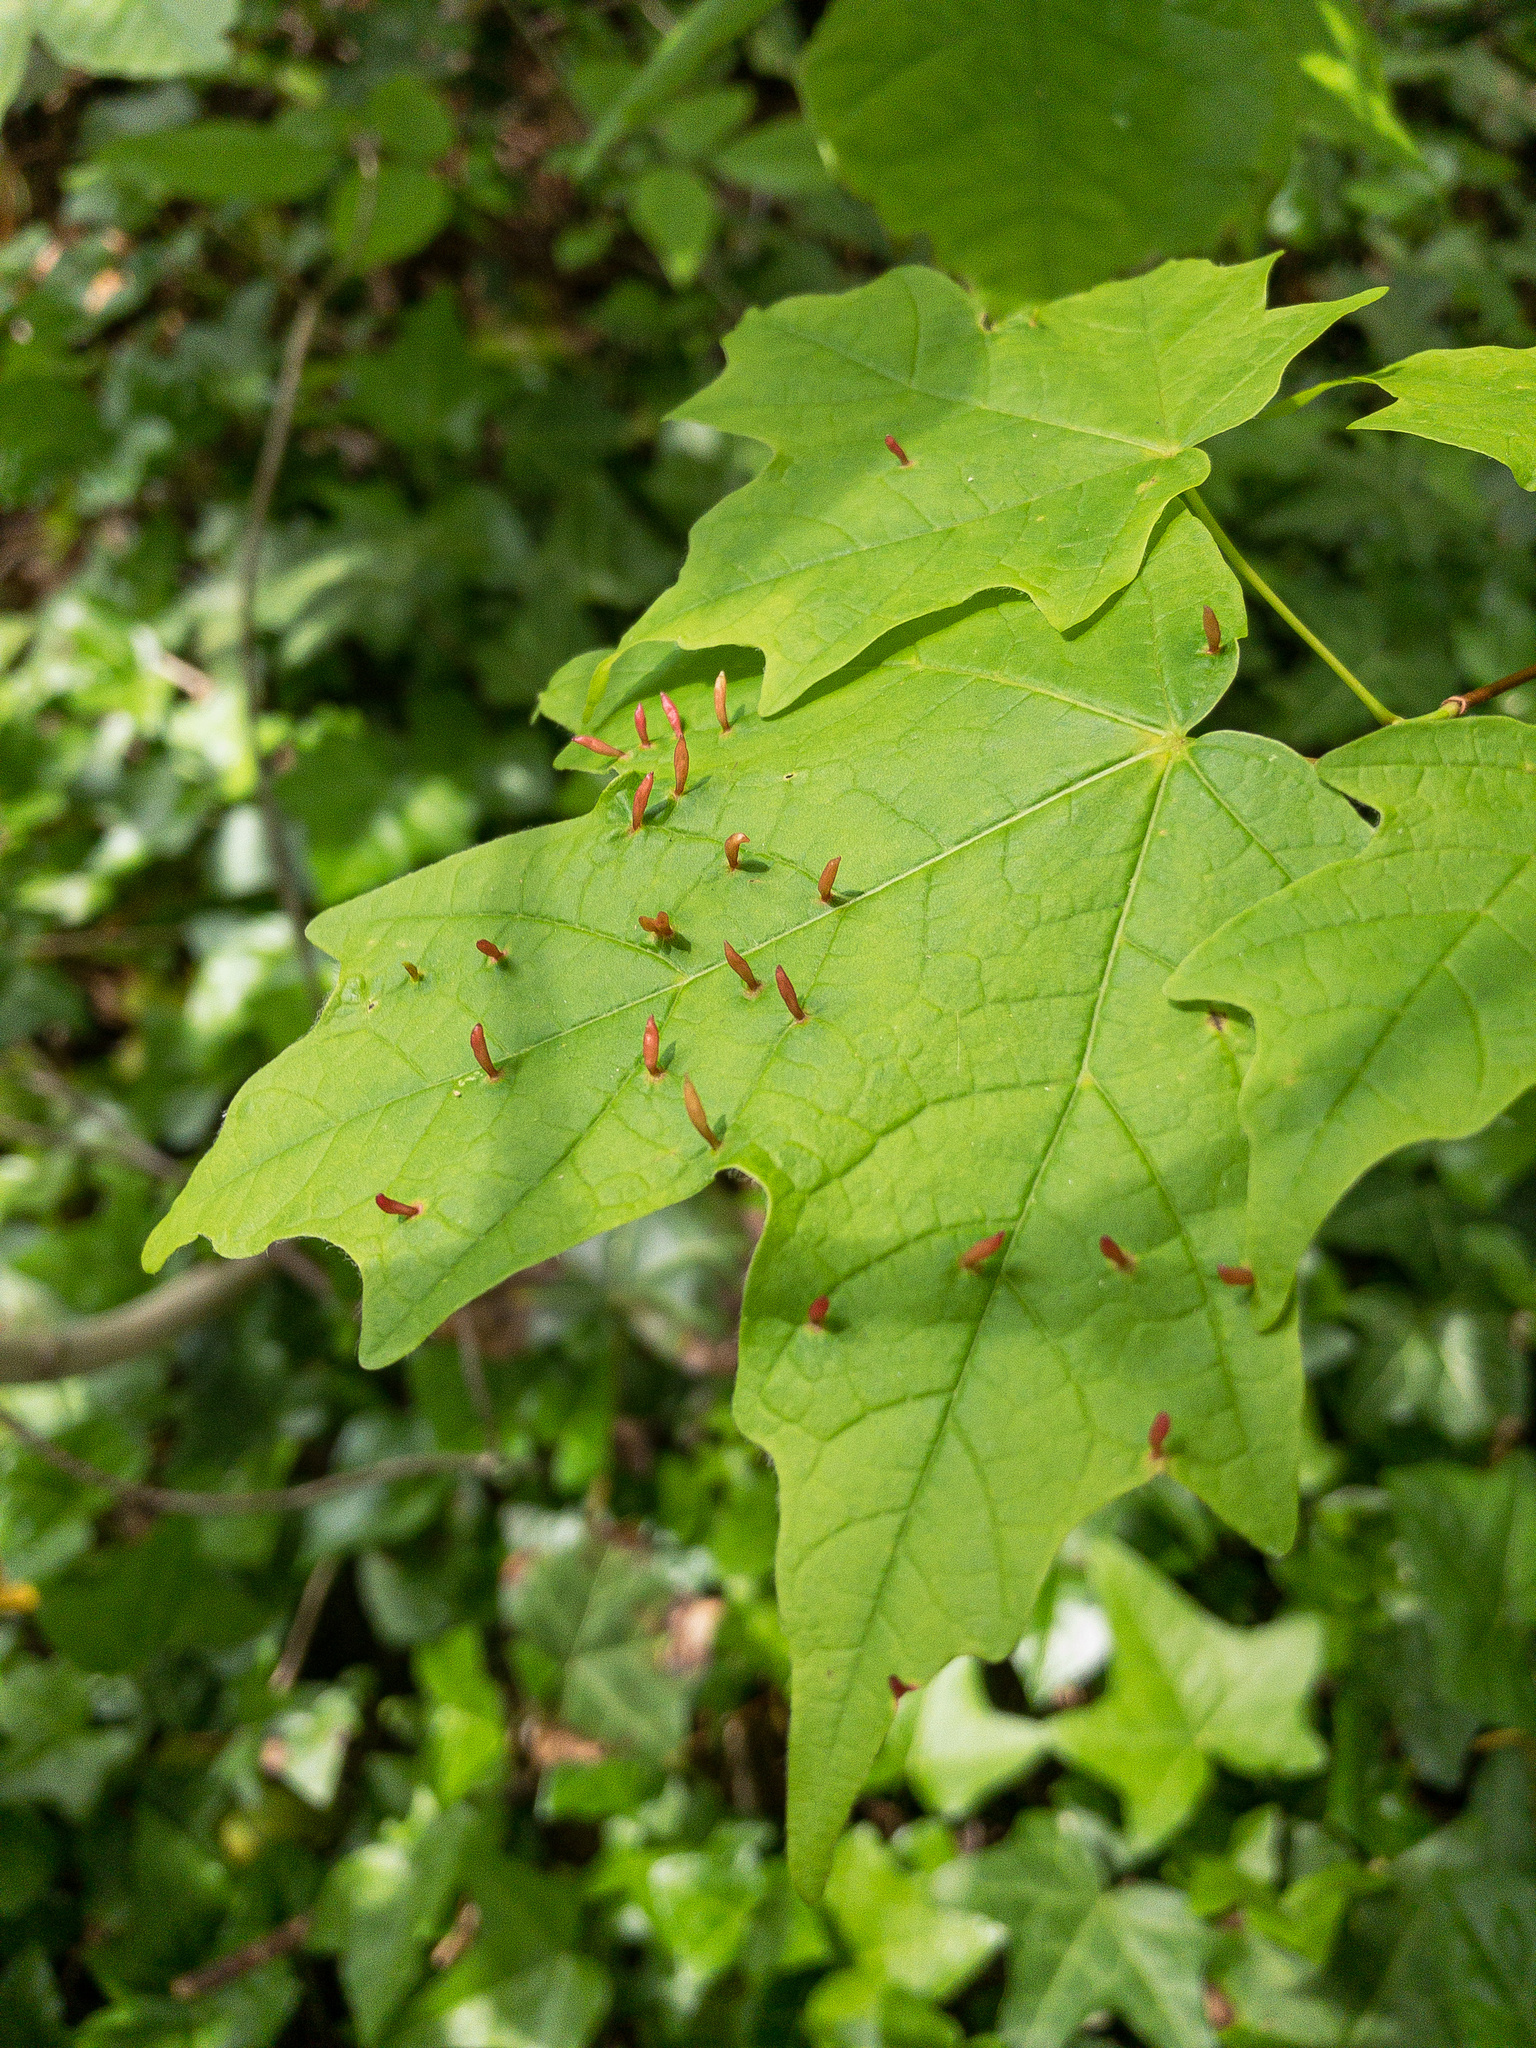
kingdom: Animalia
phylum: Arthropoda
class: Arachnida
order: Trombidiformes
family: Eriophyidae
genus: Vasates
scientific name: Vasates aceriscrumena
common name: Maple spindle gall mite
